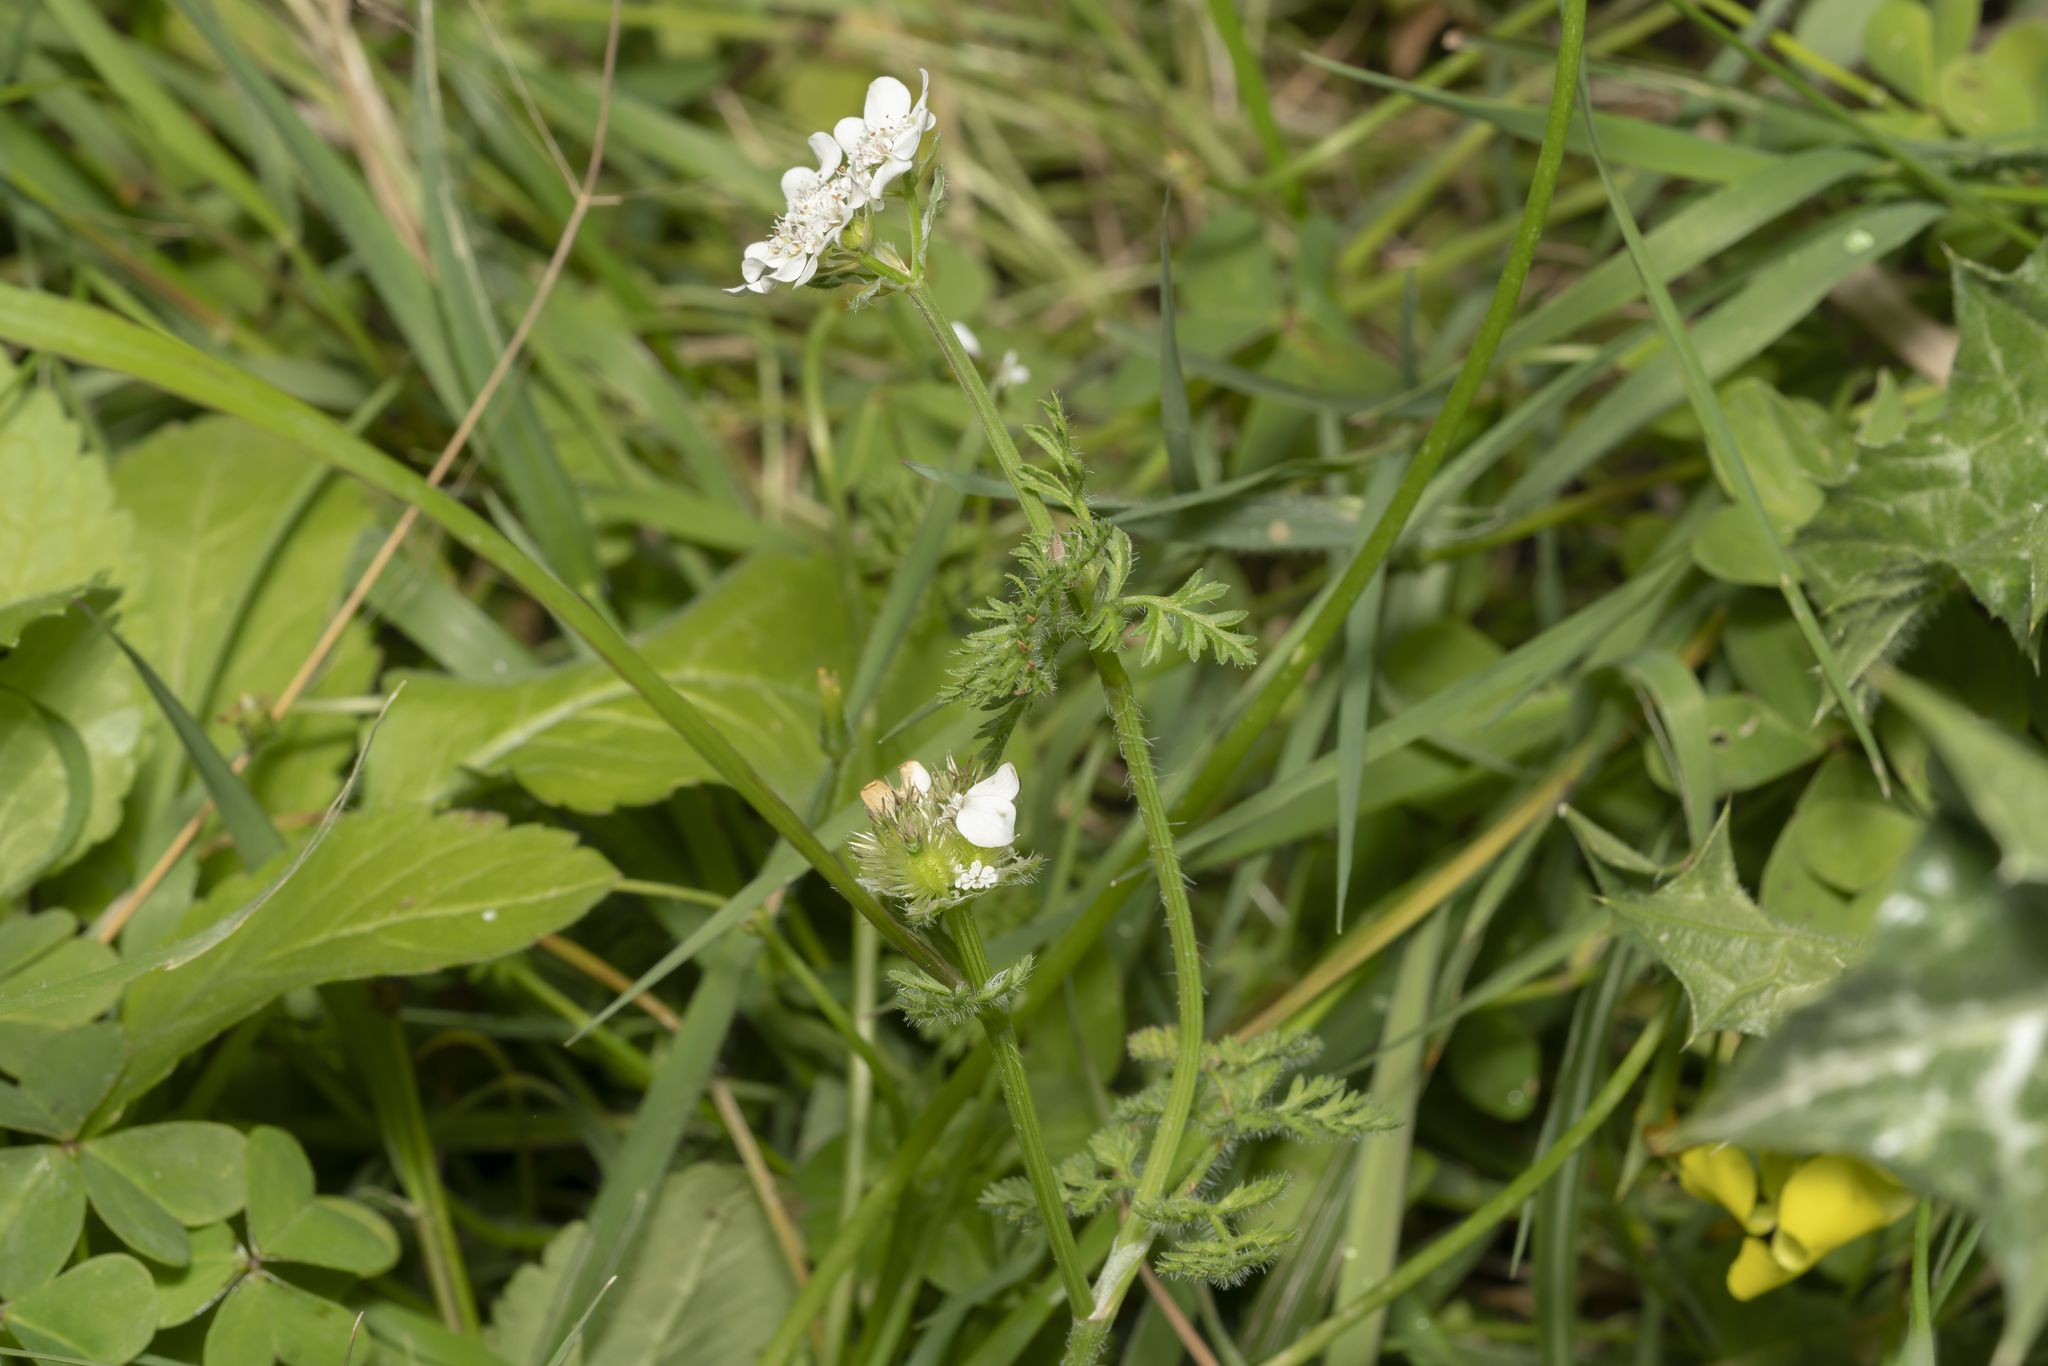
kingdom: Plantae
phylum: Tracheophyta
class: Magnoliopsida
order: Apiales
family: Apiaceae
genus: Orlaya
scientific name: Orlaya daucoides
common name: Flat-fruit orlaya
